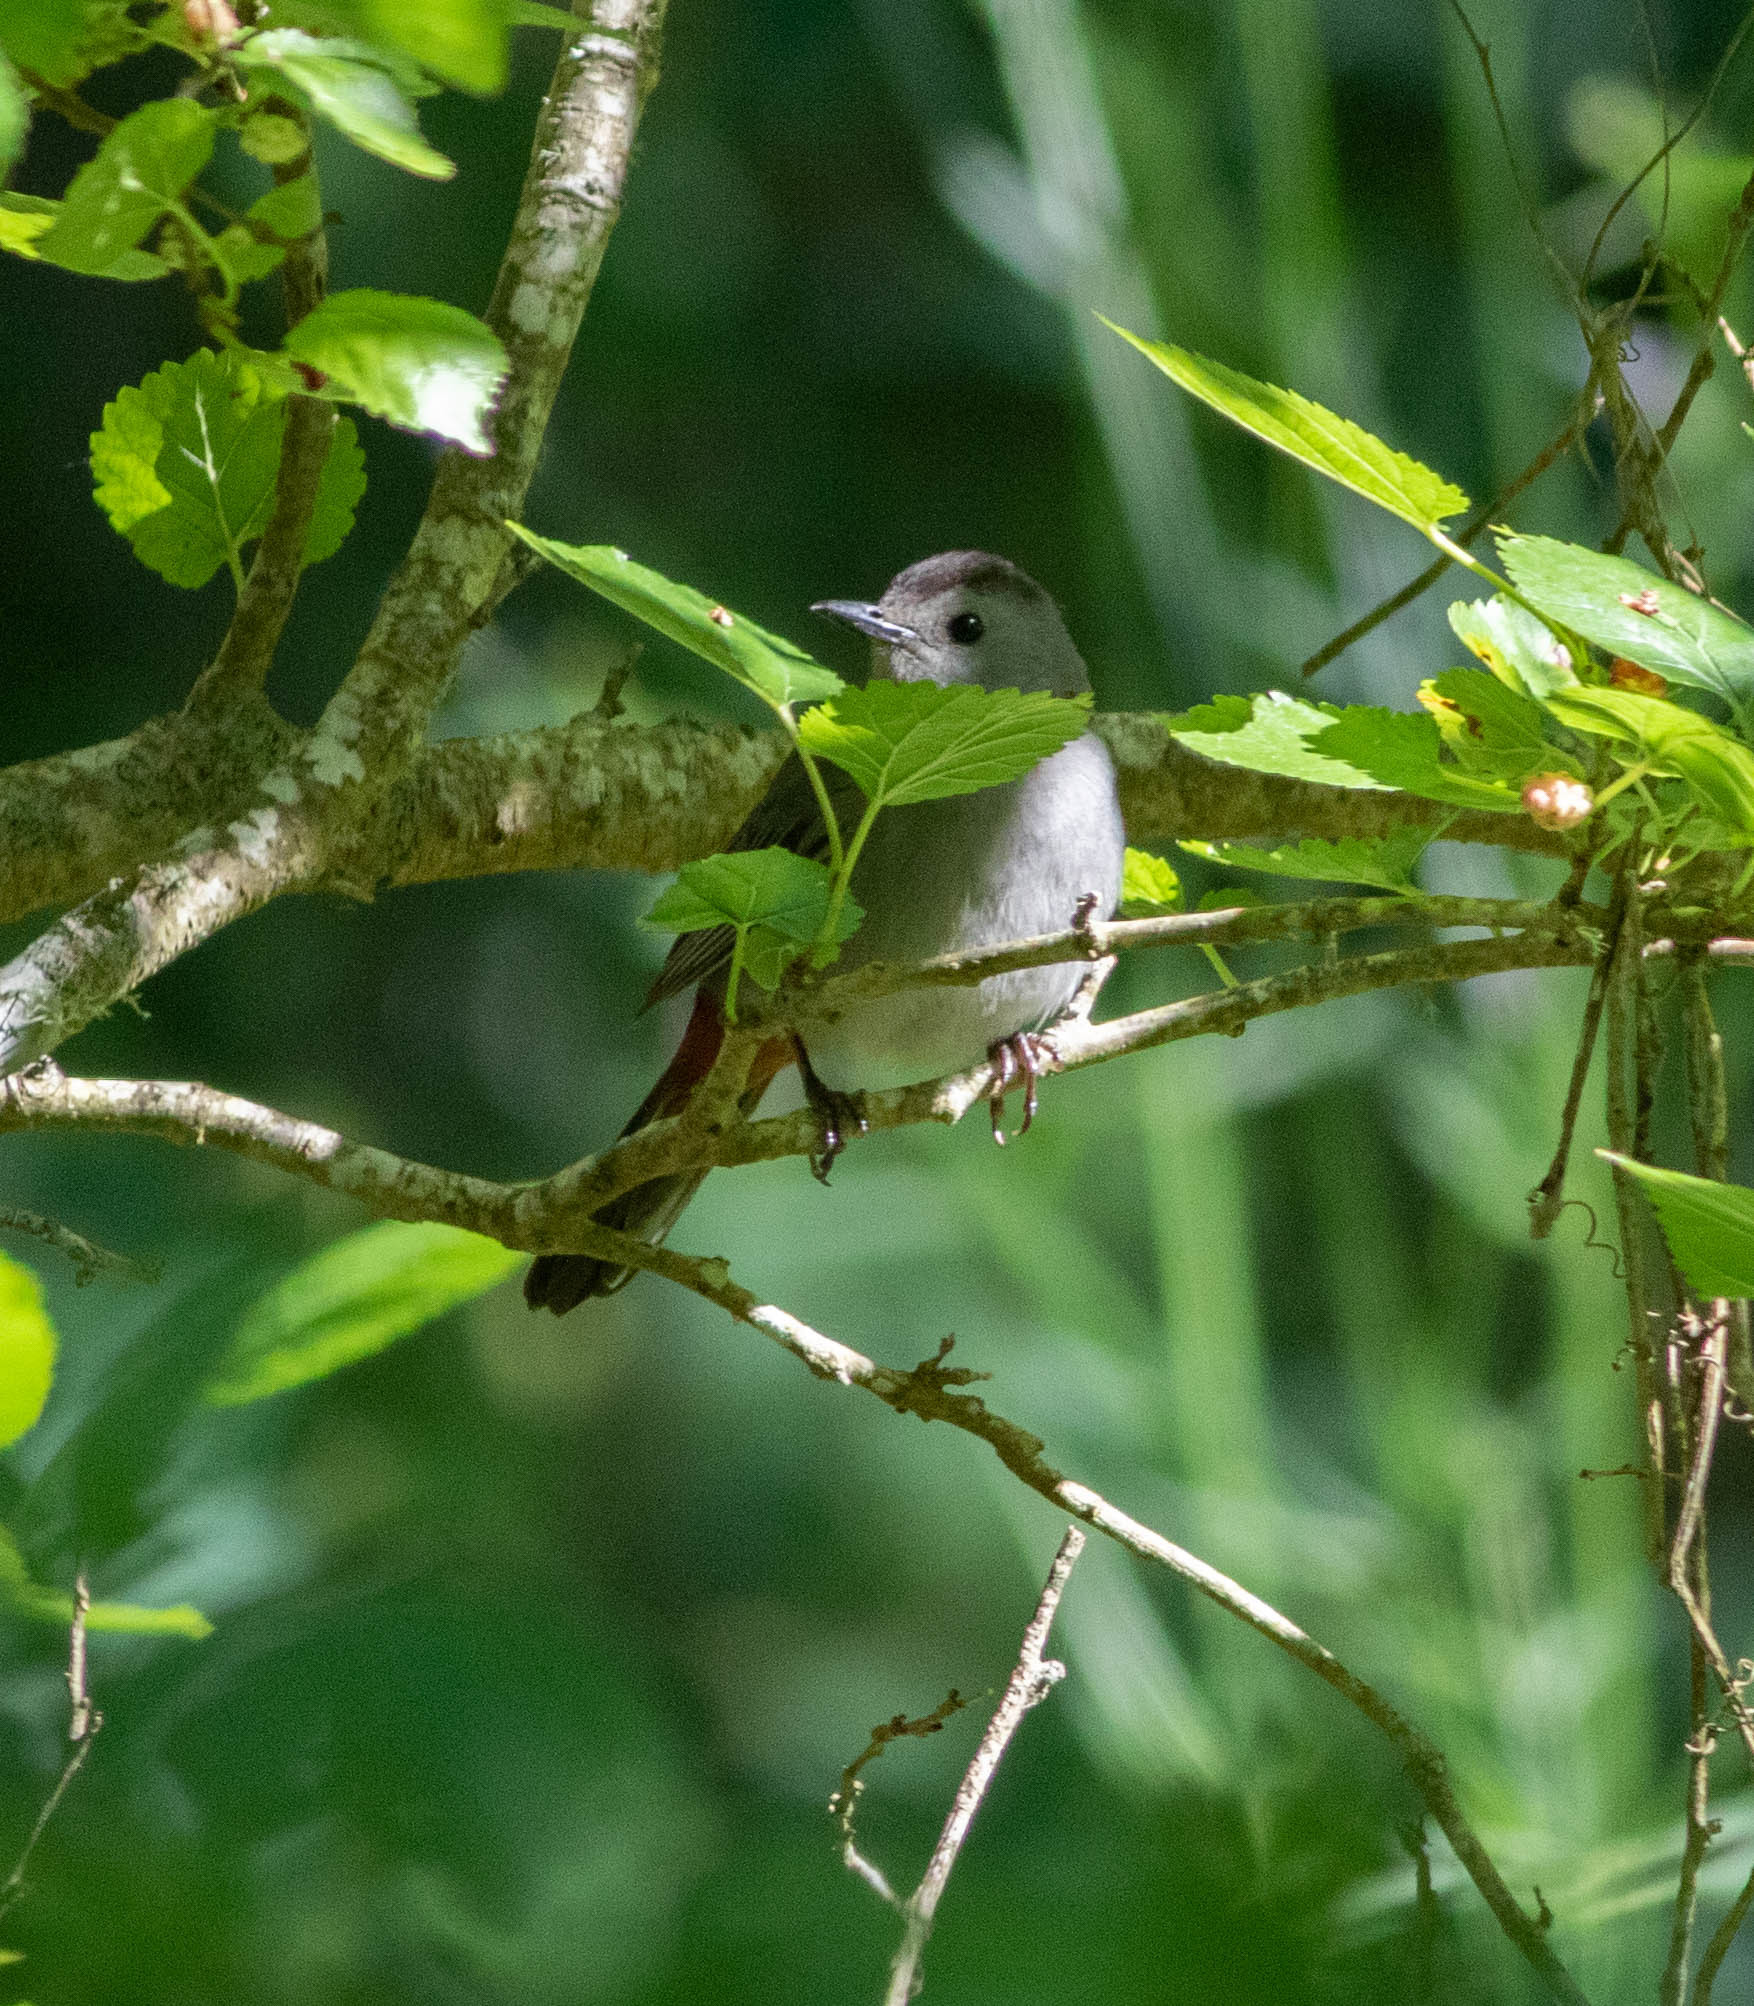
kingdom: Animalia
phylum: Chordata
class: Aves
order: Passeriformes
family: Mimidae
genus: Dumetella
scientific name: Dumetella carolinensis
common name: Gray catbird
